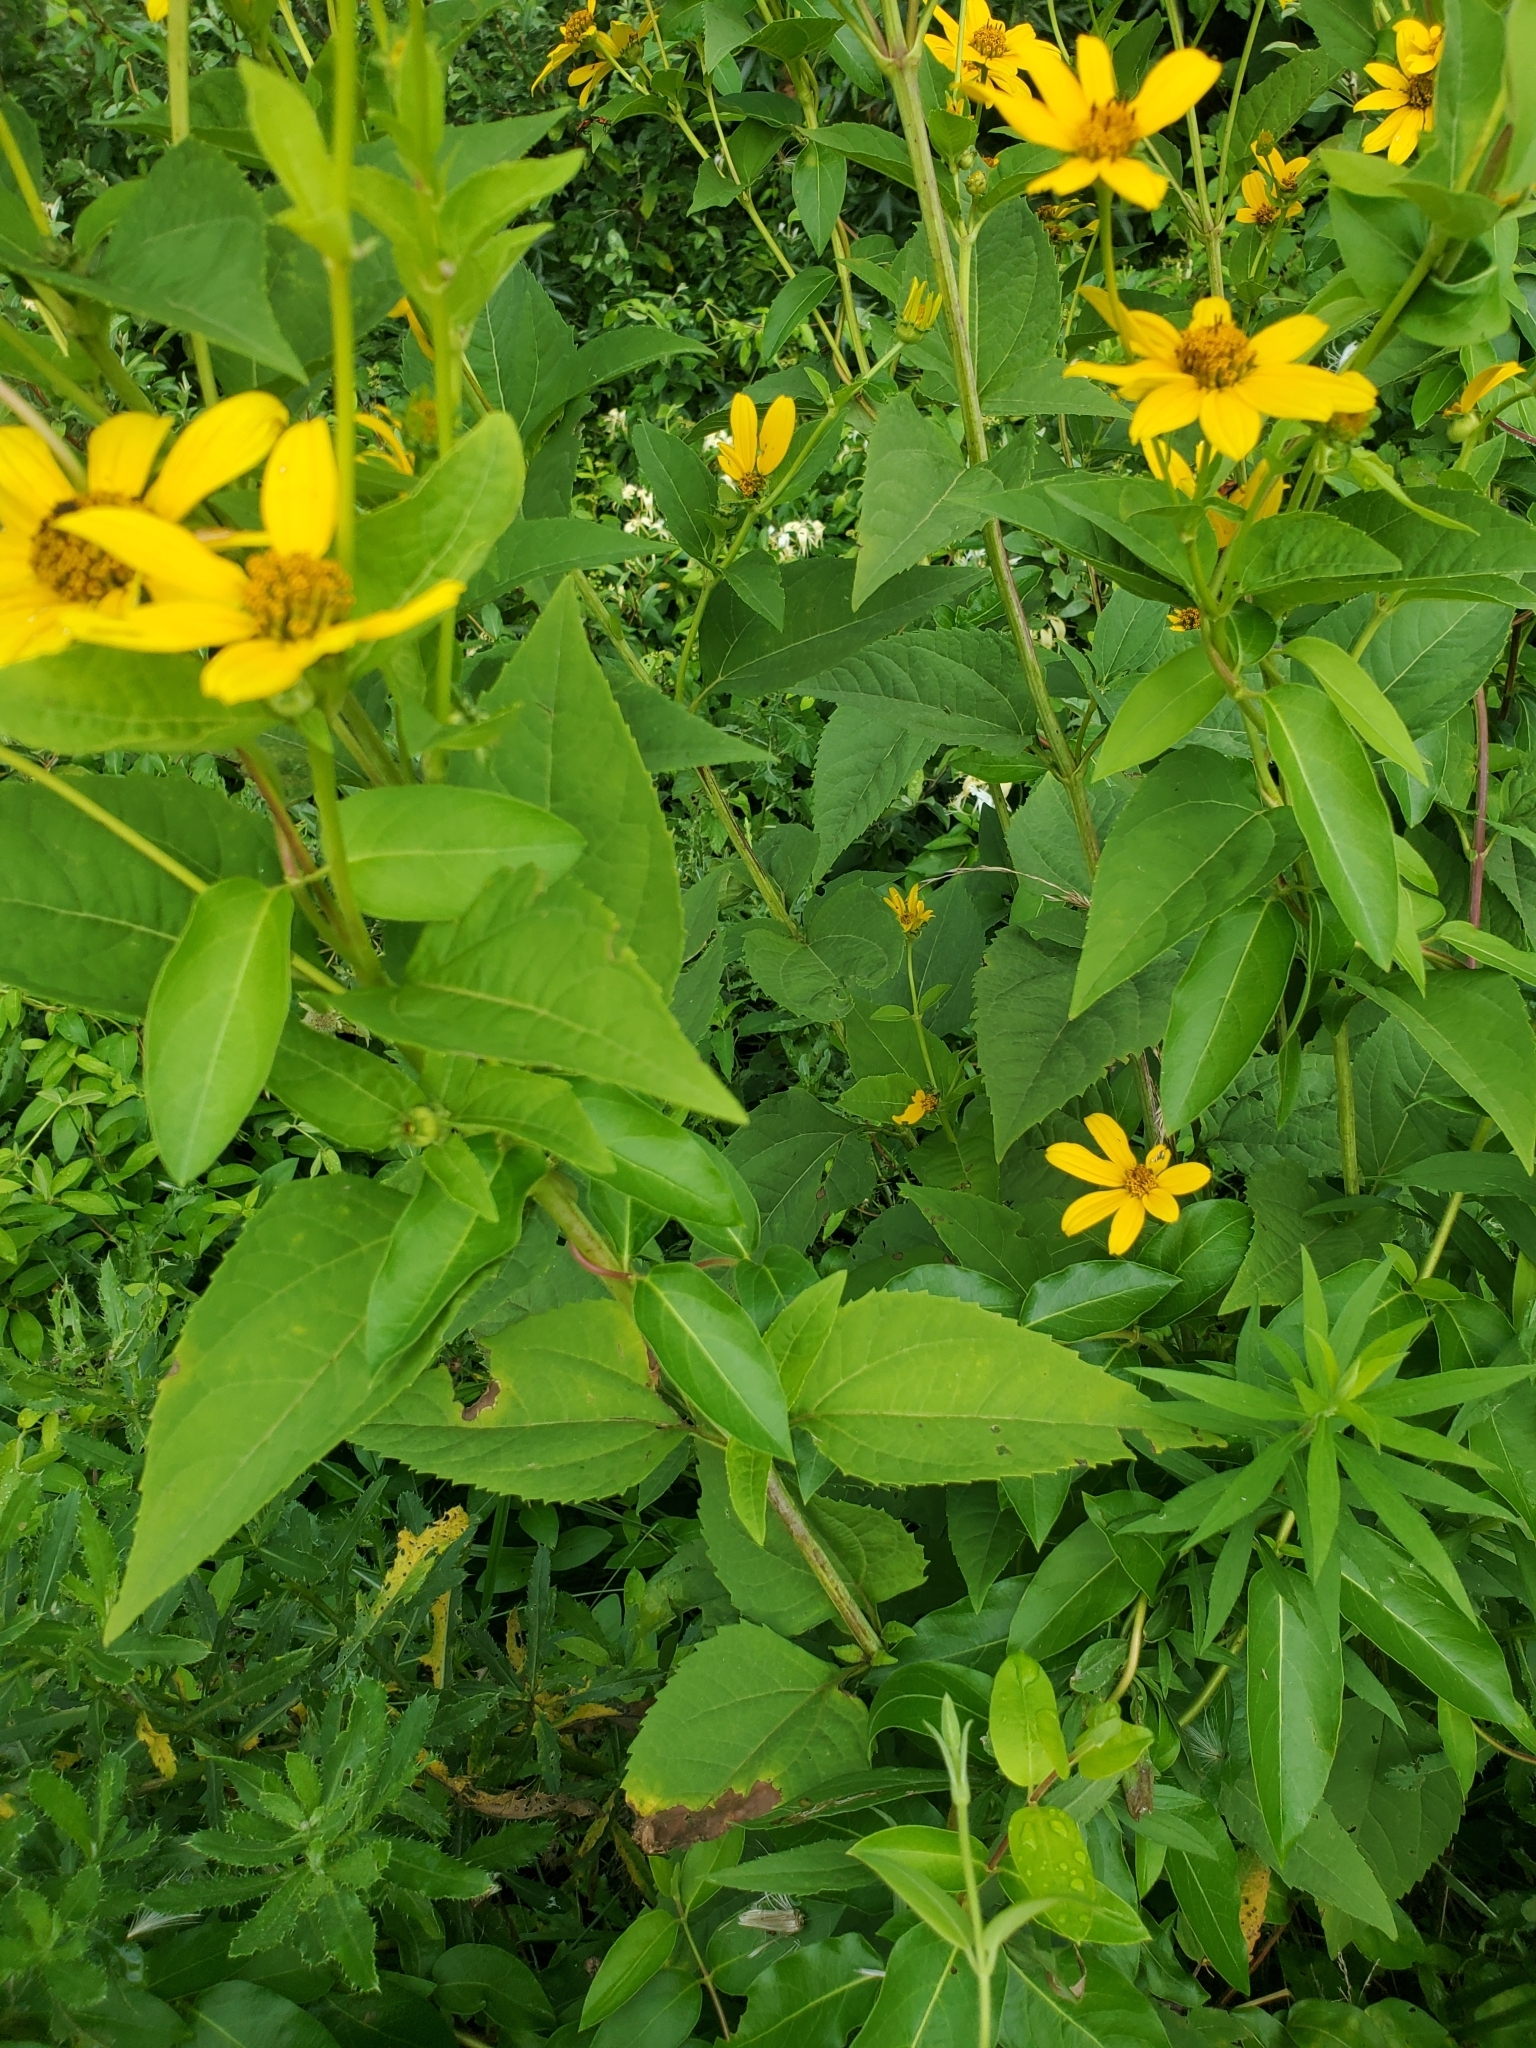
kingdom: Plantae
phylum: Tracheophyta
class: Magnoliopsida
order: Asterales
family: Asteraceae
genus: Heliopsis
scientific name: Heliopsis helianthoides
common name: False sunflower
